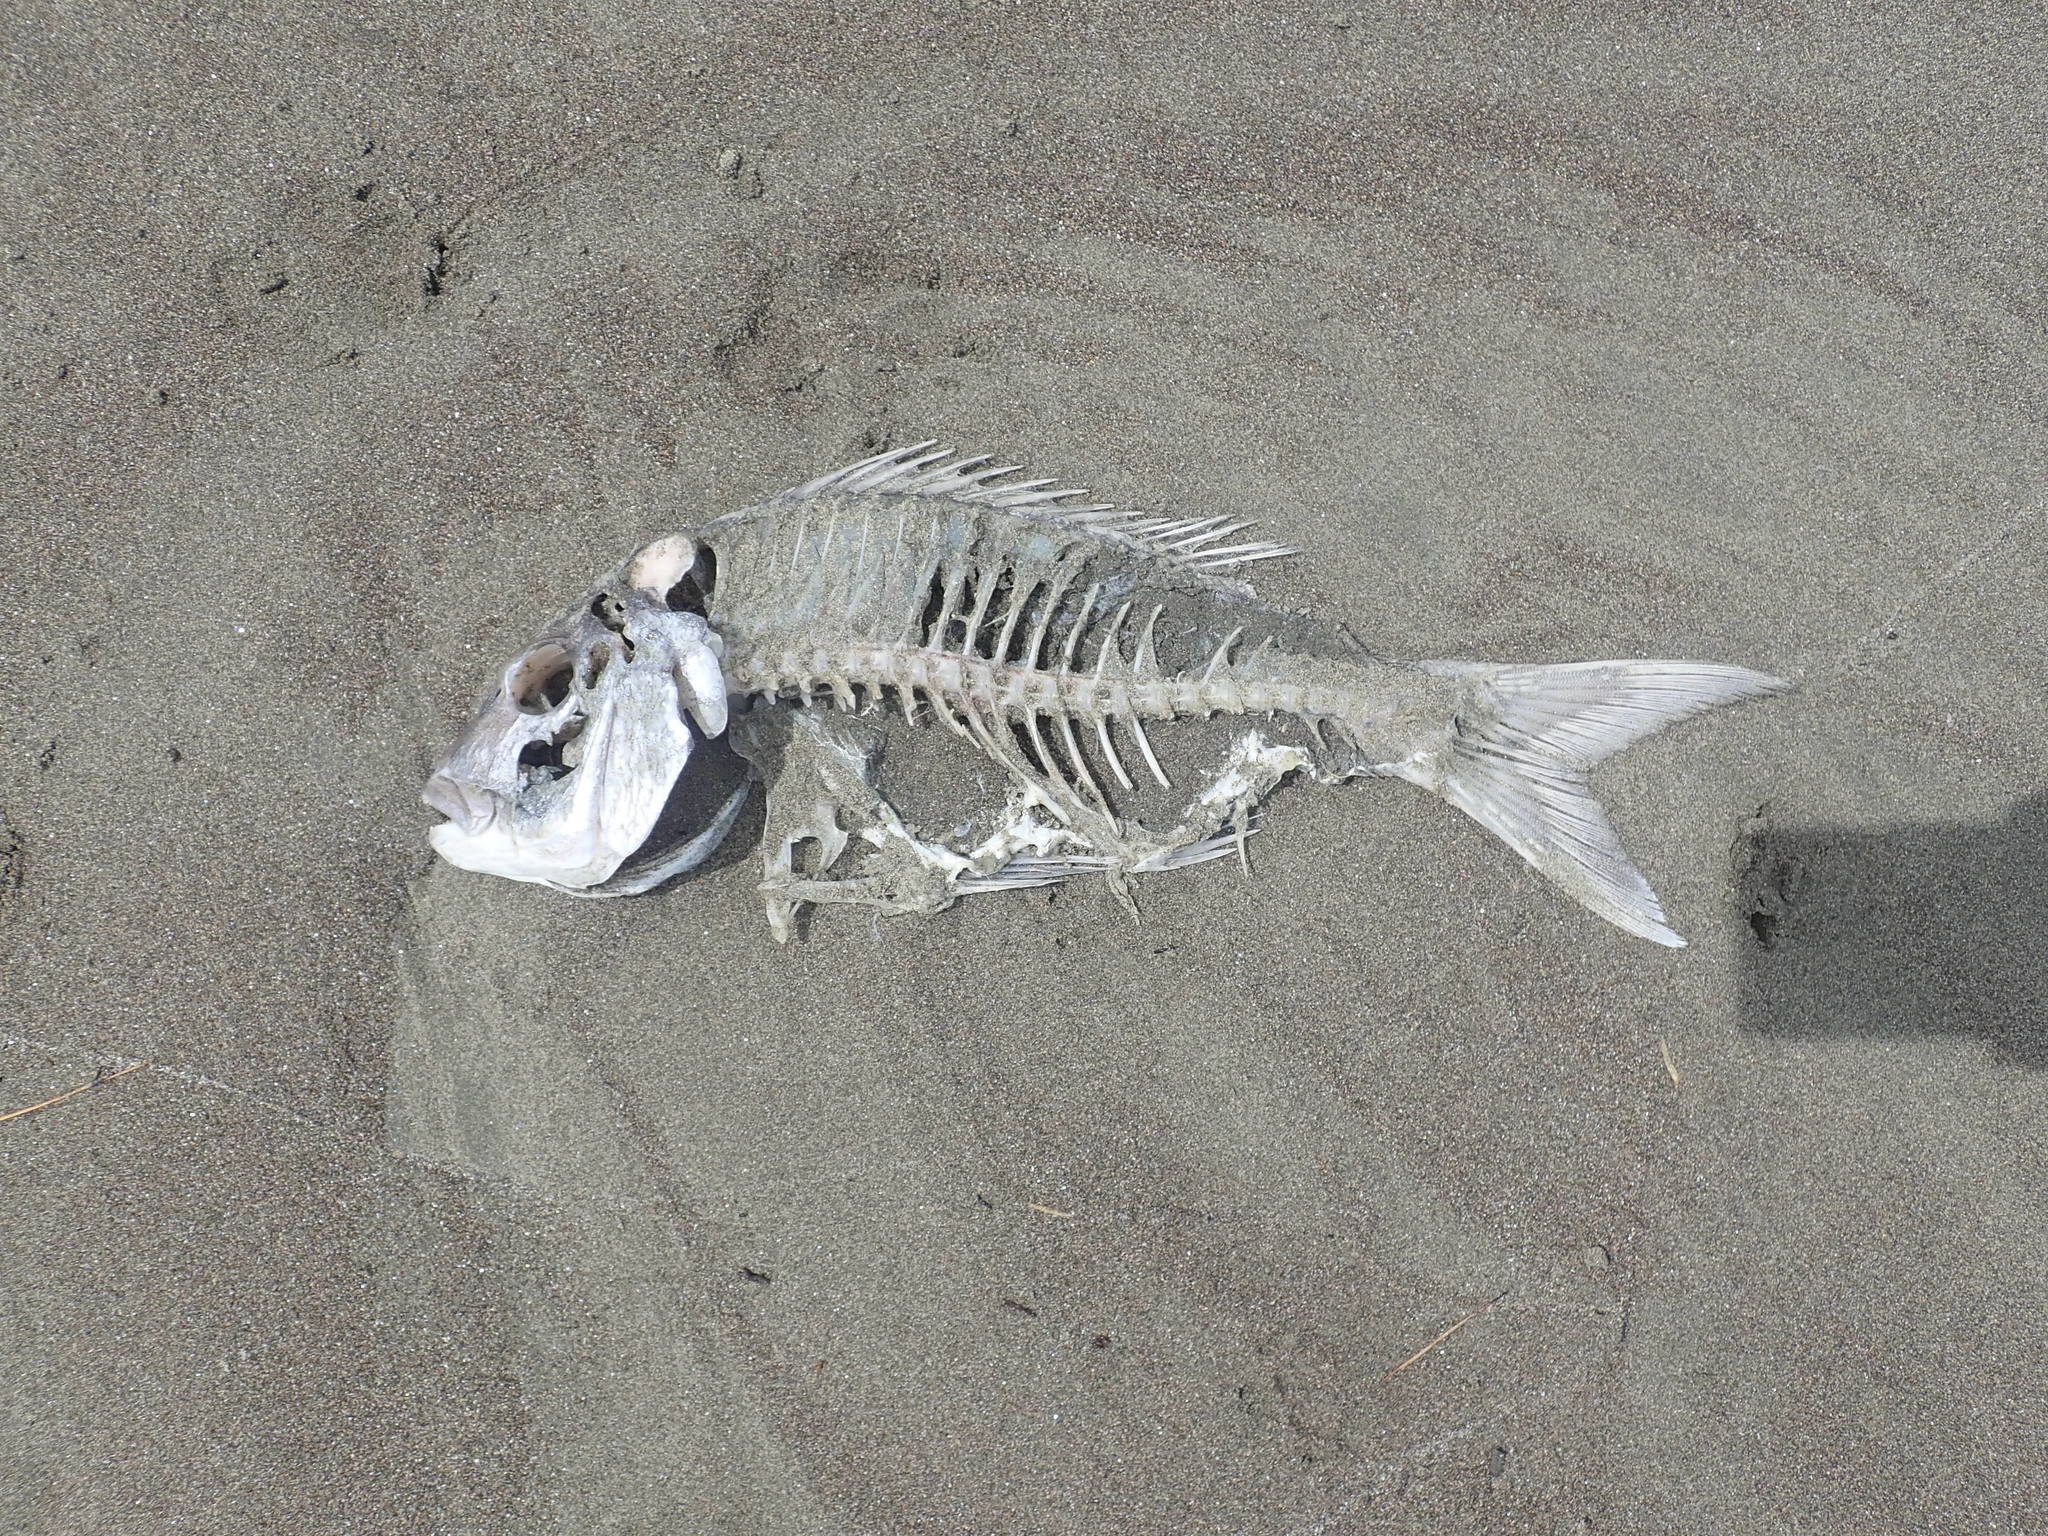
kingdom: Animalia
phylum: Chordata
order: Perciformes
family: Sparidae
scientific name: Sparidae
